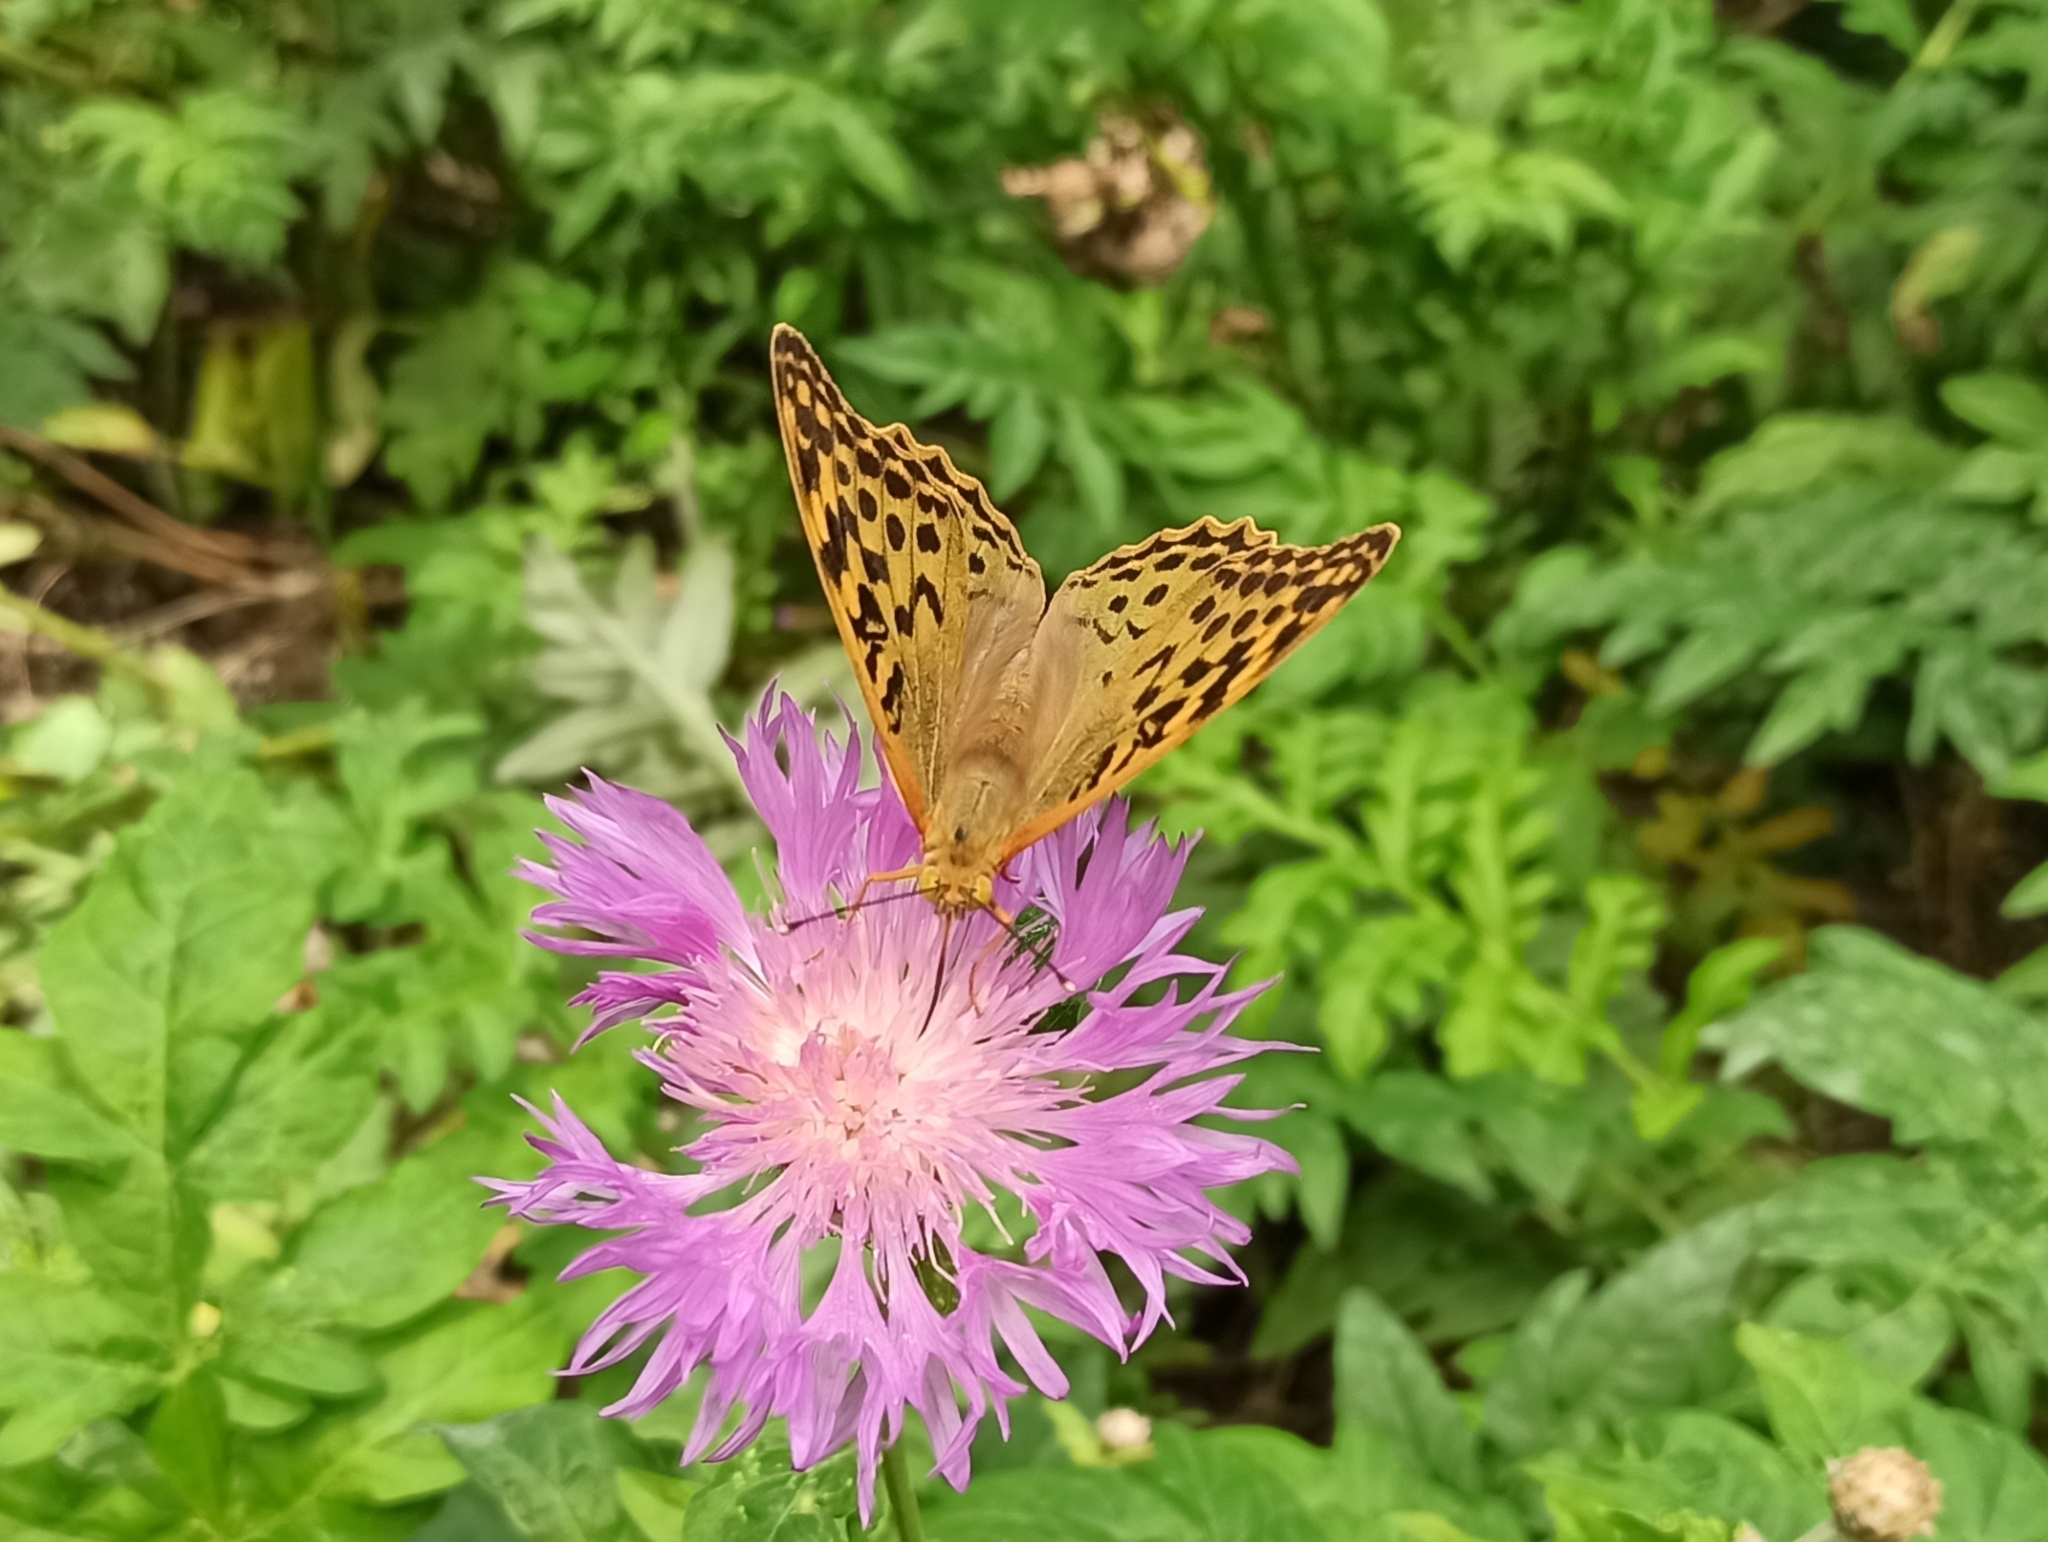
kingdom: Animalia
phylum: Arthropoda
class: Insecta
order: Lepidoptera
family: Nymphalidae
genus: Damora
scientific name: Damora pandora
